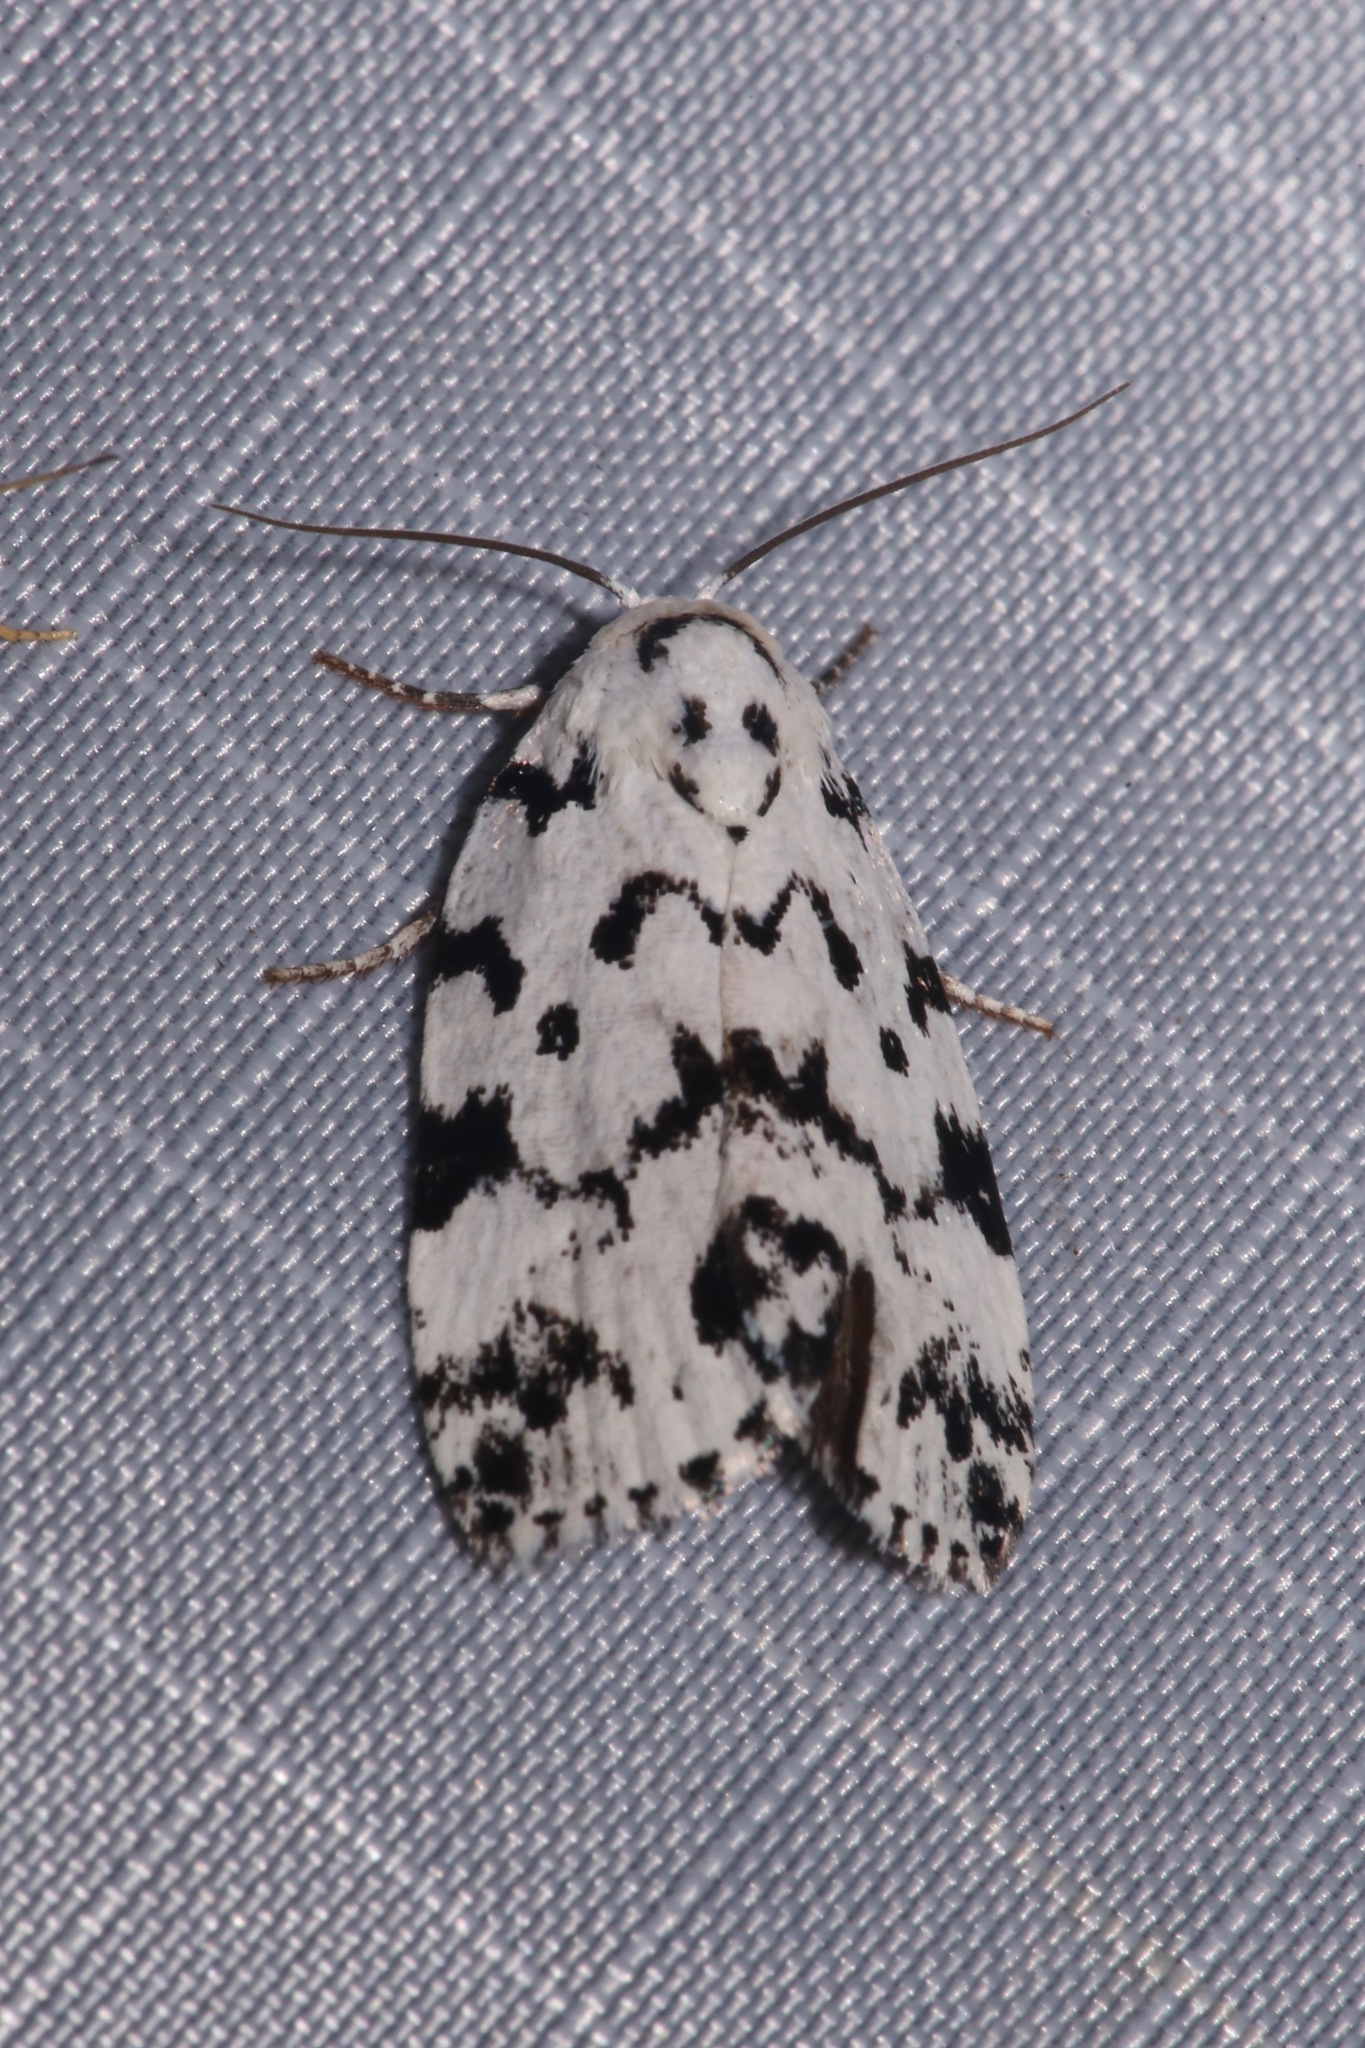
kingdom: Animalia
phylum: Arthropoda
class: Insecta
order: Lepidoptera
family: Noctuidae
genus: Polygrammate
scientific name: Polygrammate hebraeicum
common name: Hebrew moth
